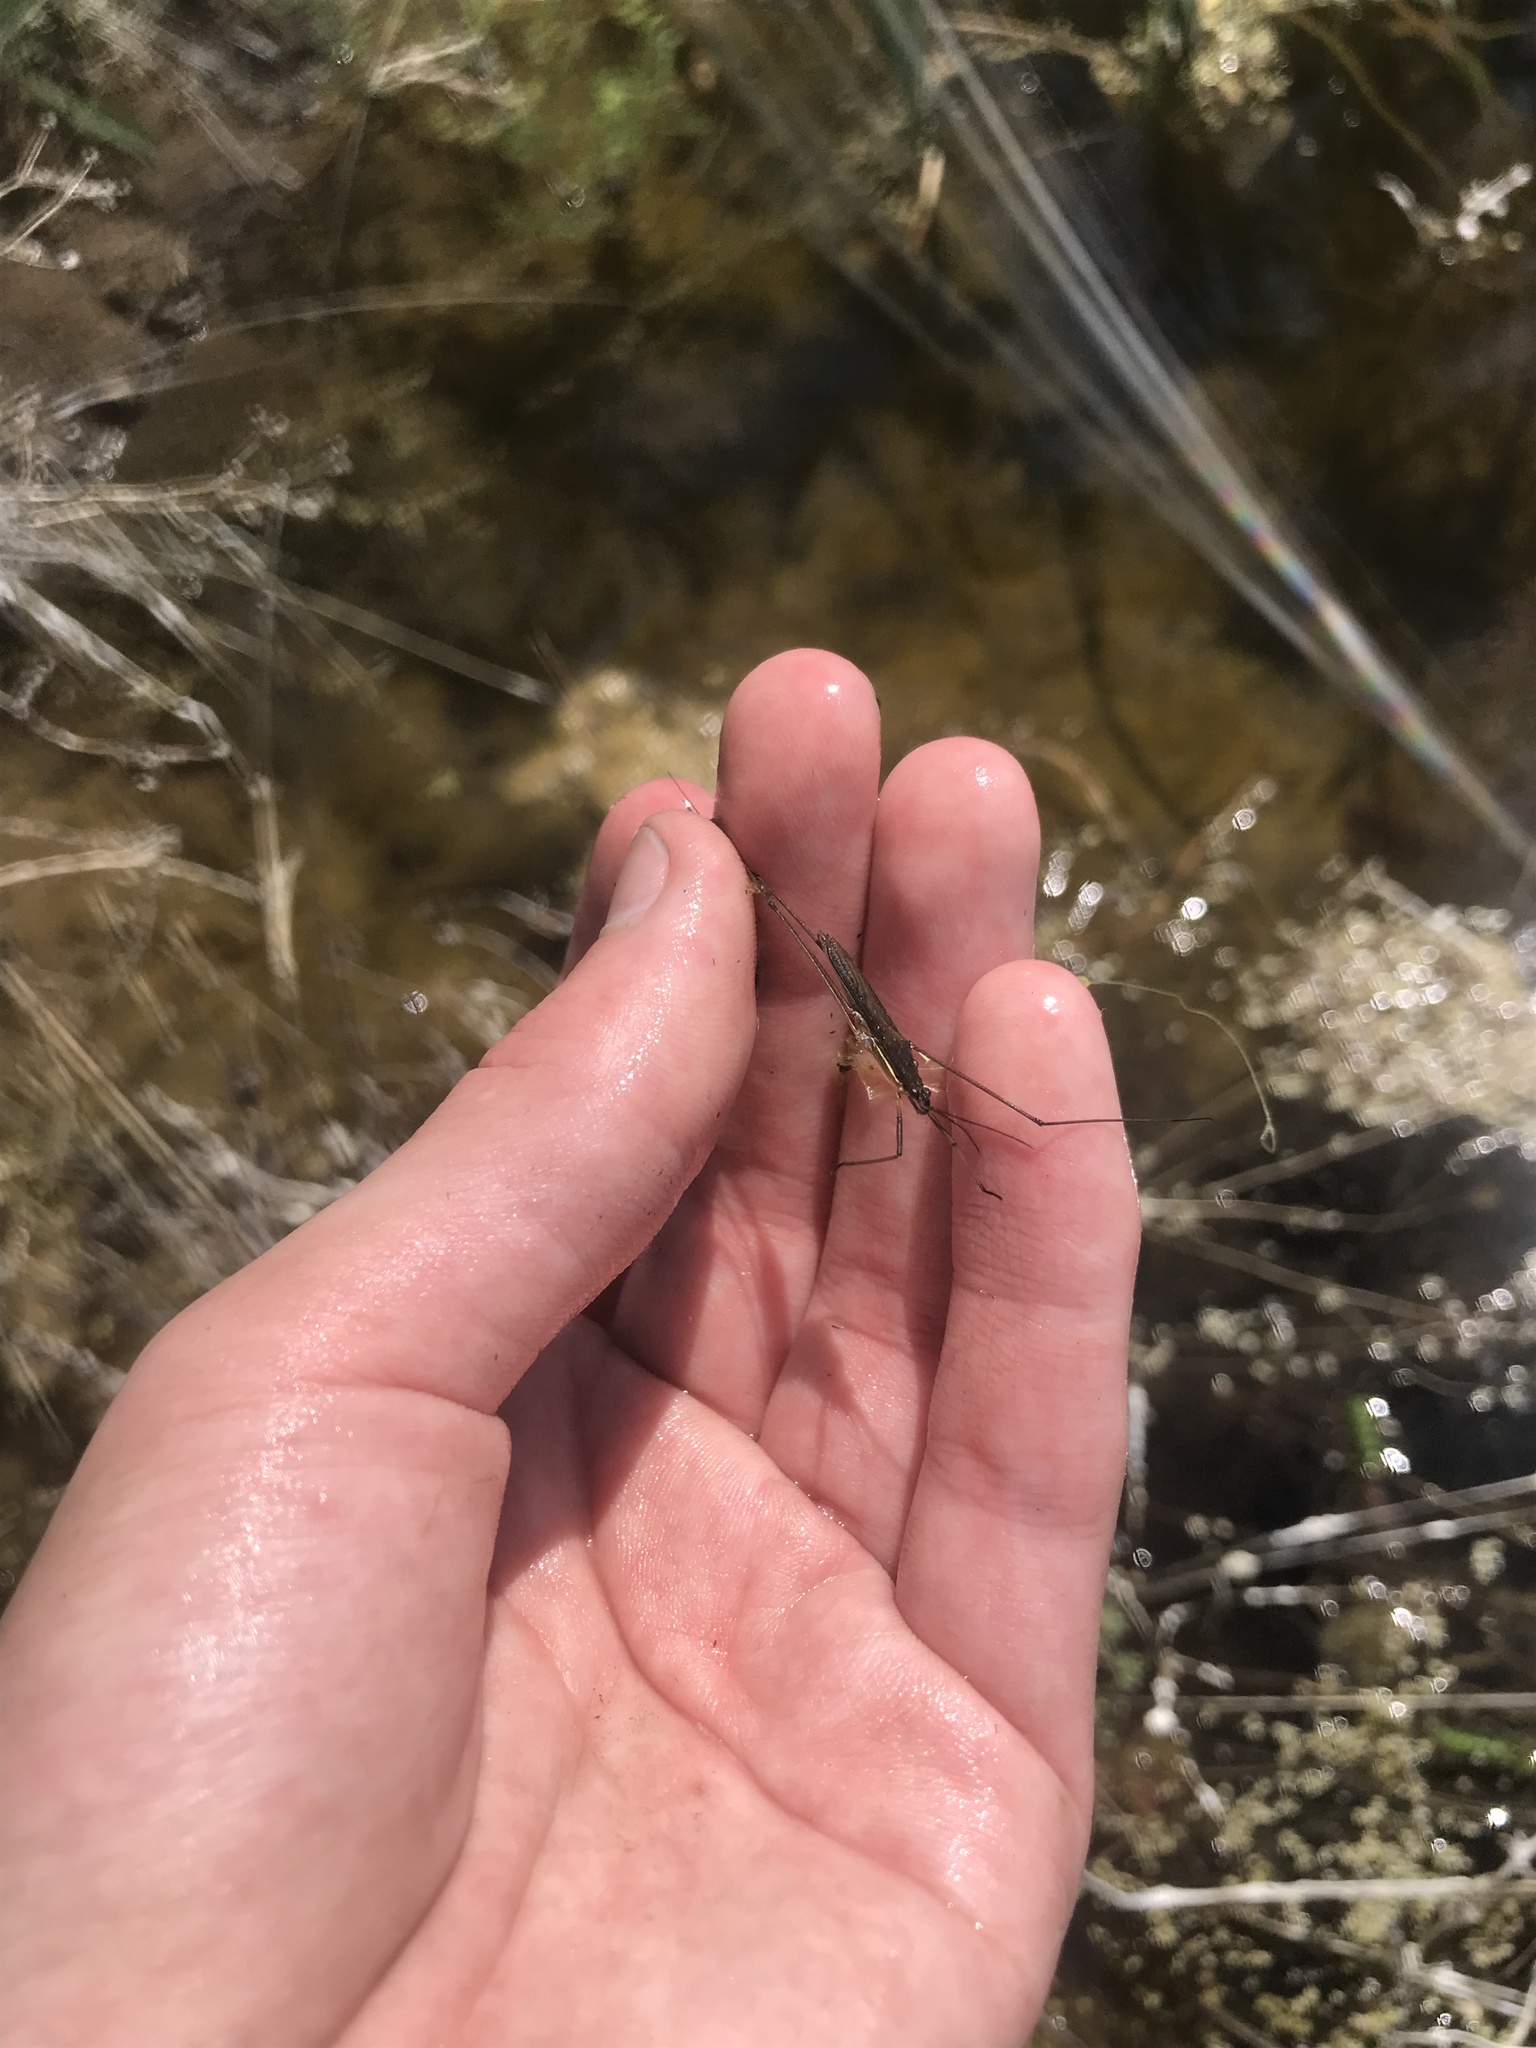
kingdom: Animalia
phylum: Arthropoda
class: Insecta
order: Hemiptera
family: Gerridae
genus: Limnoporus
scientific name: Limnoporus notabilis
